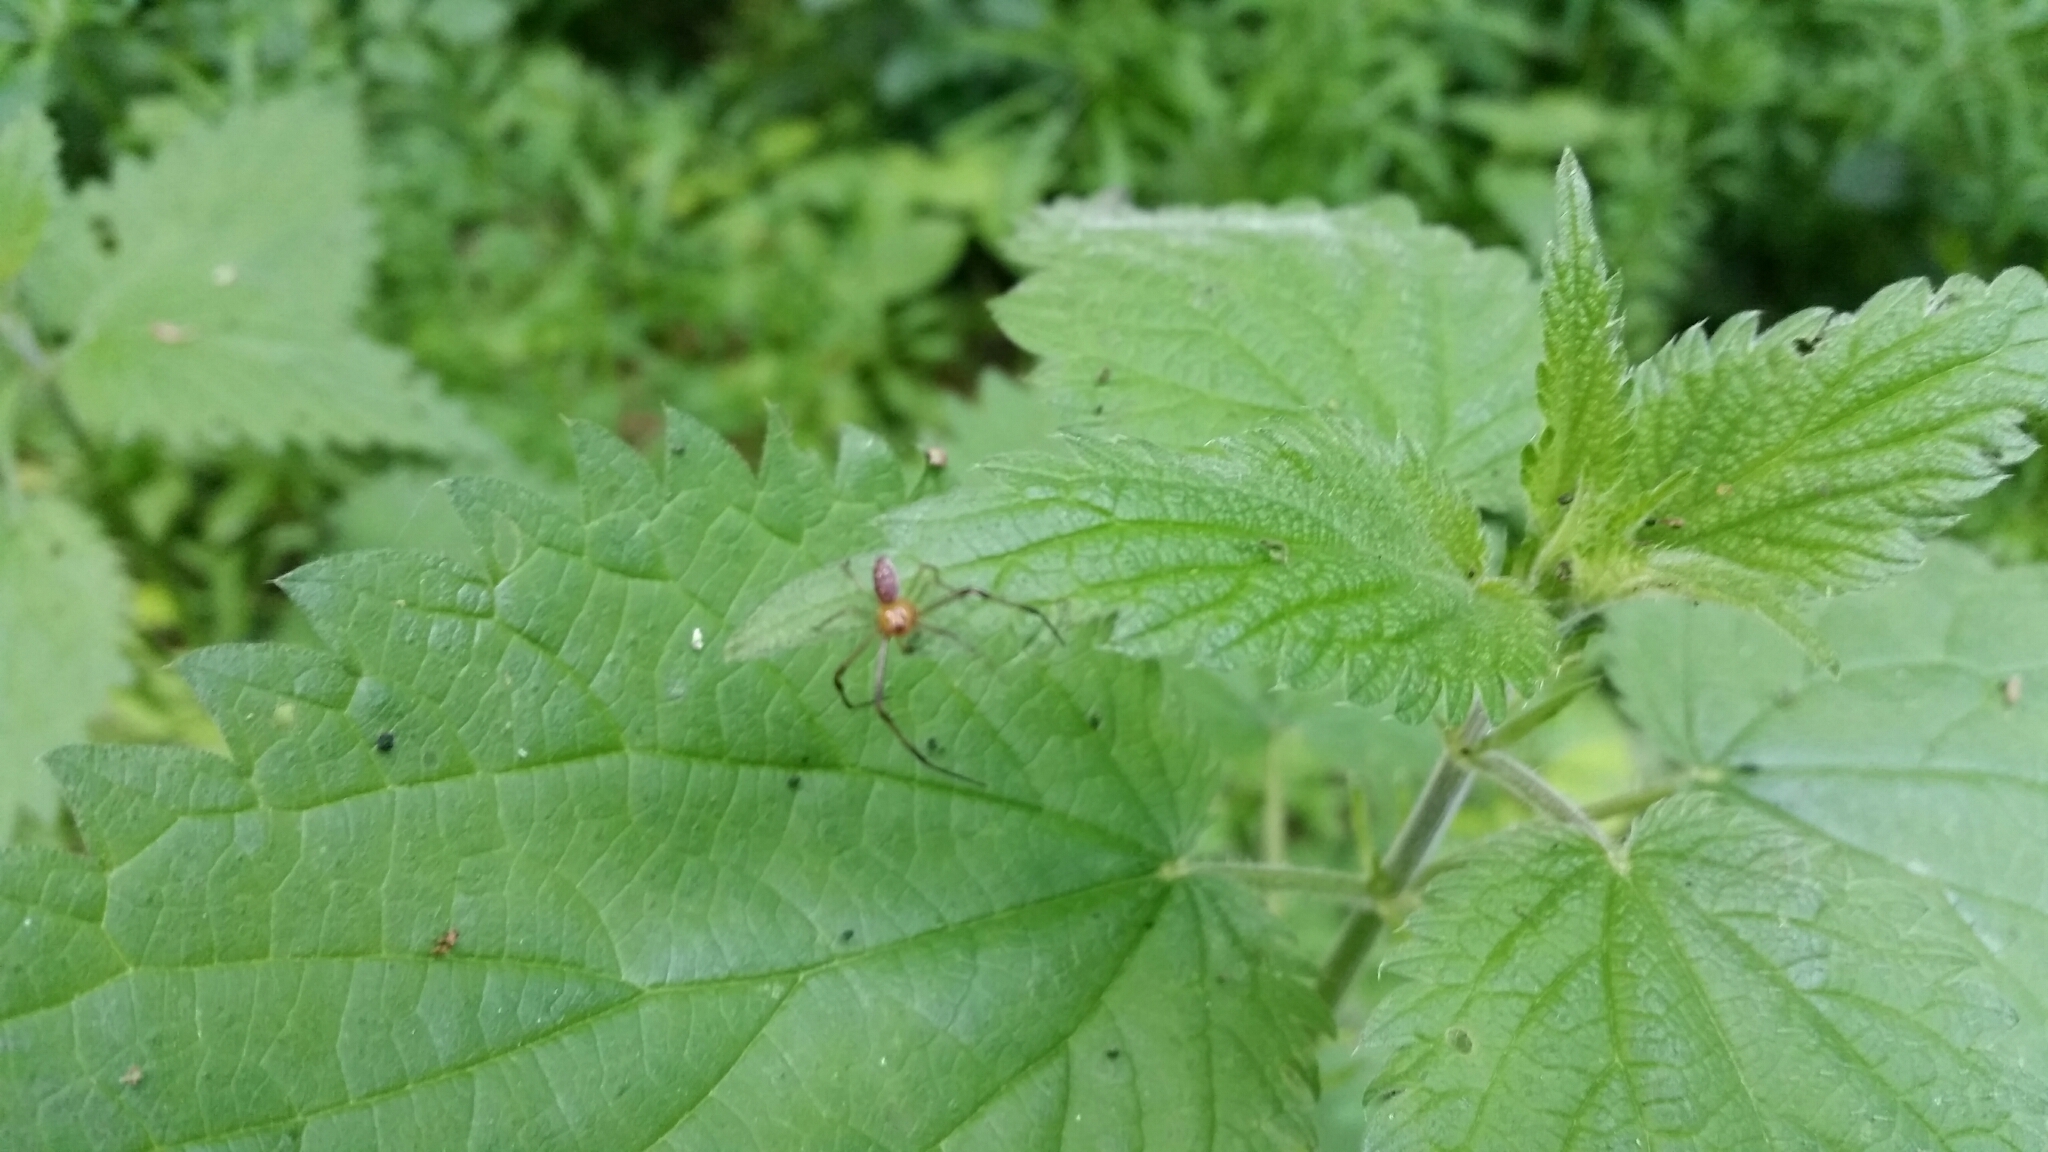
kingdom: Animalia
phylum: Arthropoda
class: Arachnida
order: Araneae
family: Thomisidae
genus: Diaea
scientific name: Diaea dorsata
